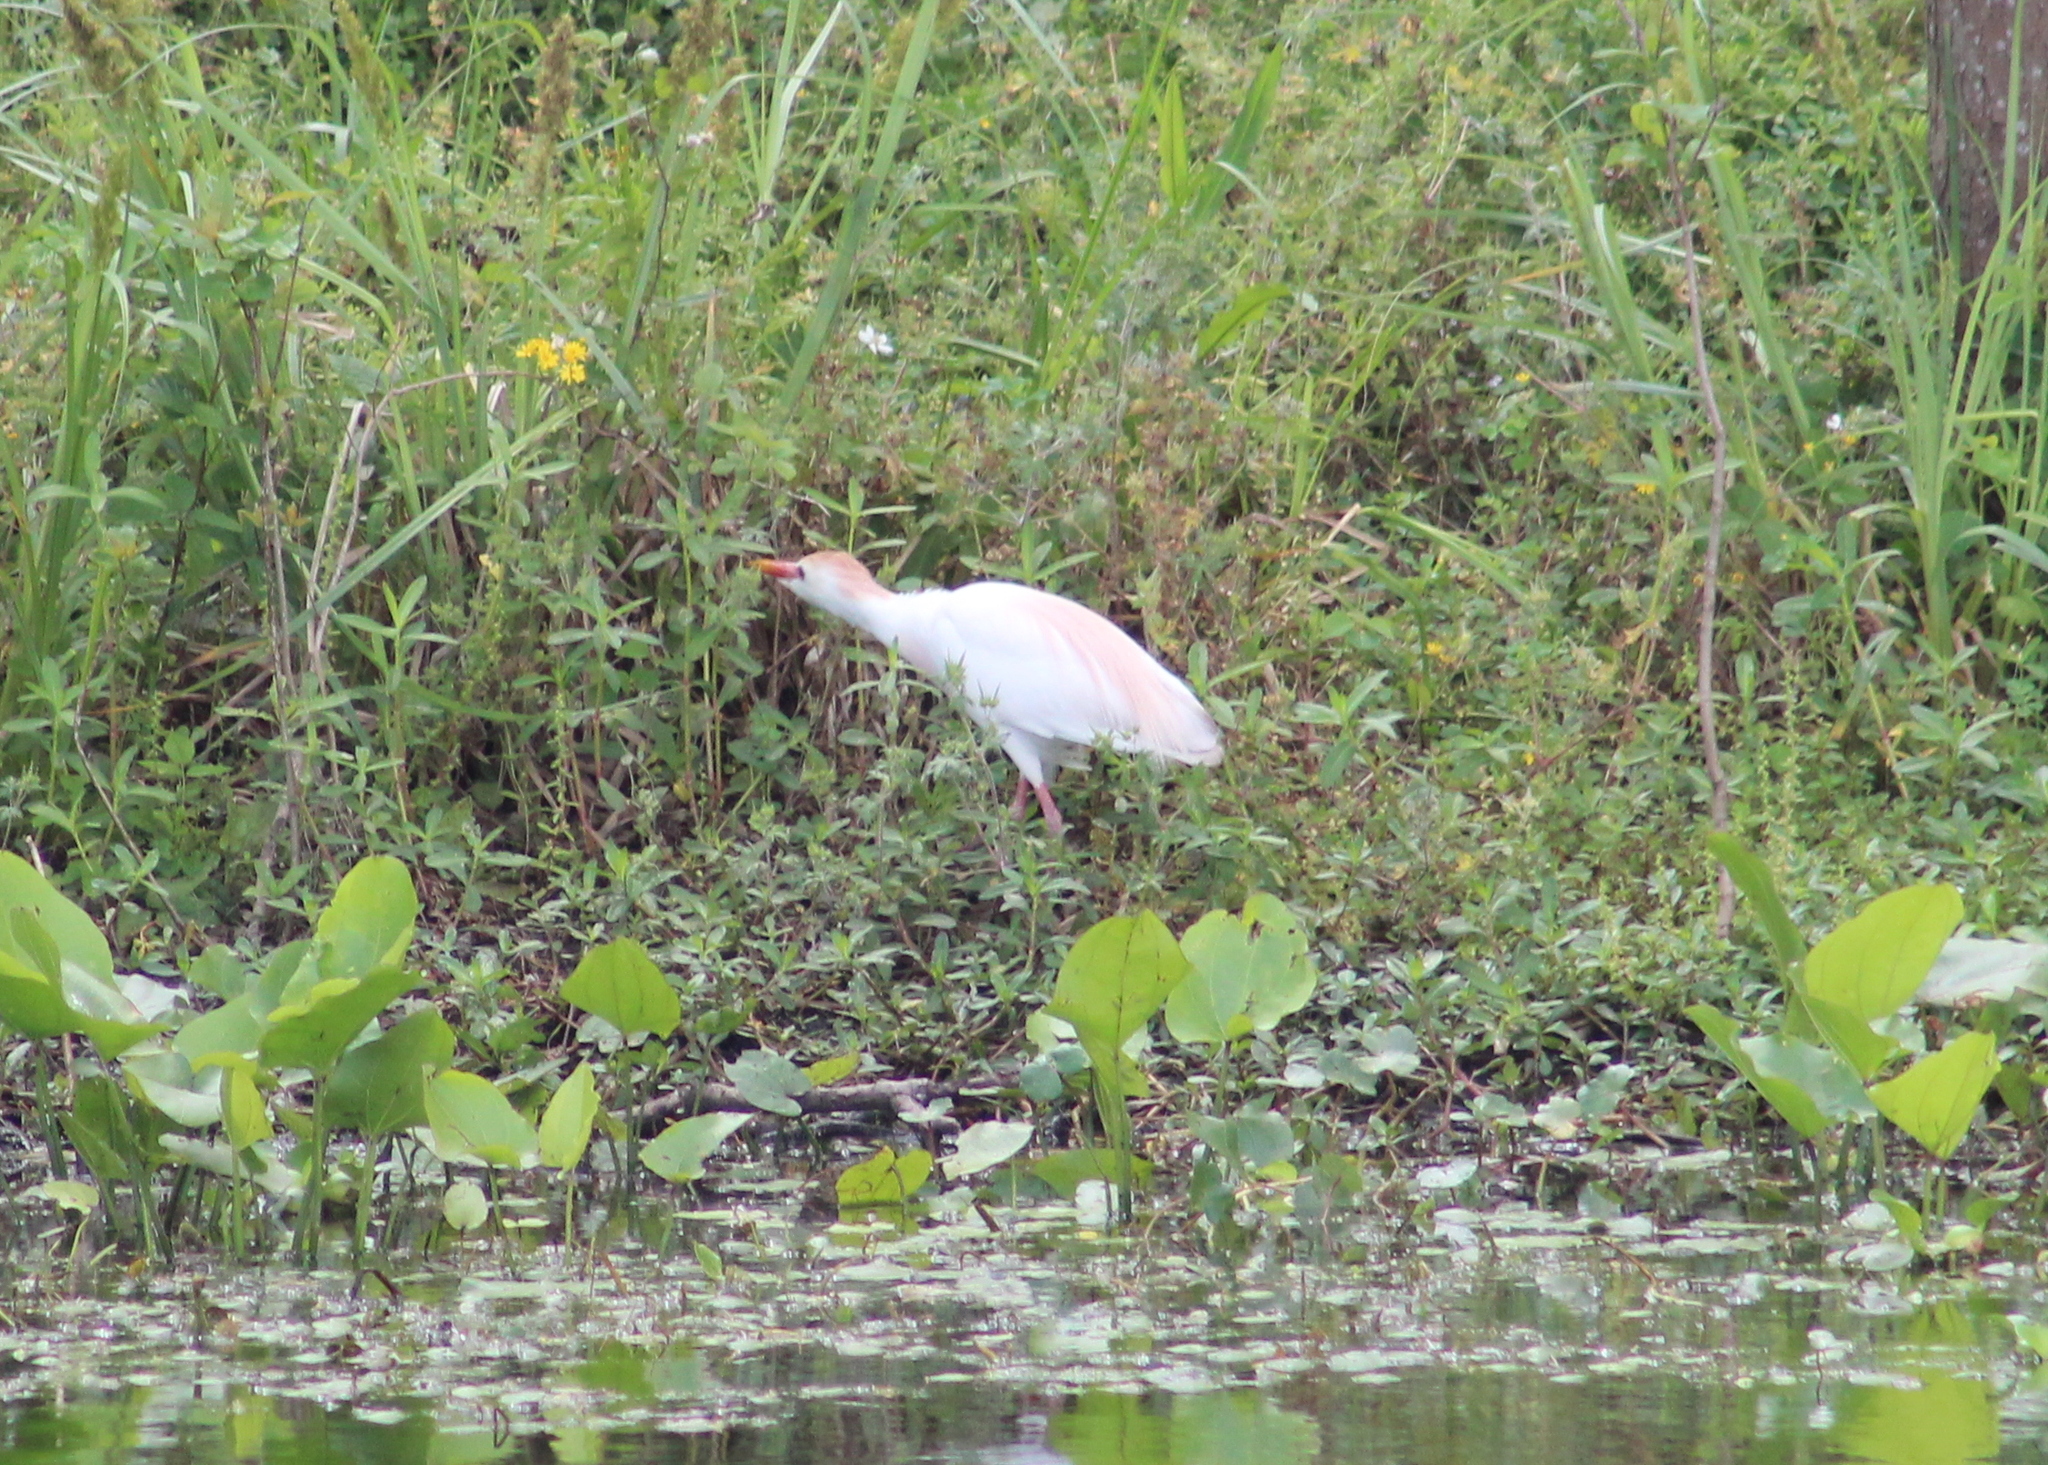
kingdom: Animalia
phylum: Chordata
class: Aves
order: Pelecaniformes
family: Ardeidae
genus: Bubulcus
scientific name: Bubulcus ibis
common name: Cattle egret
